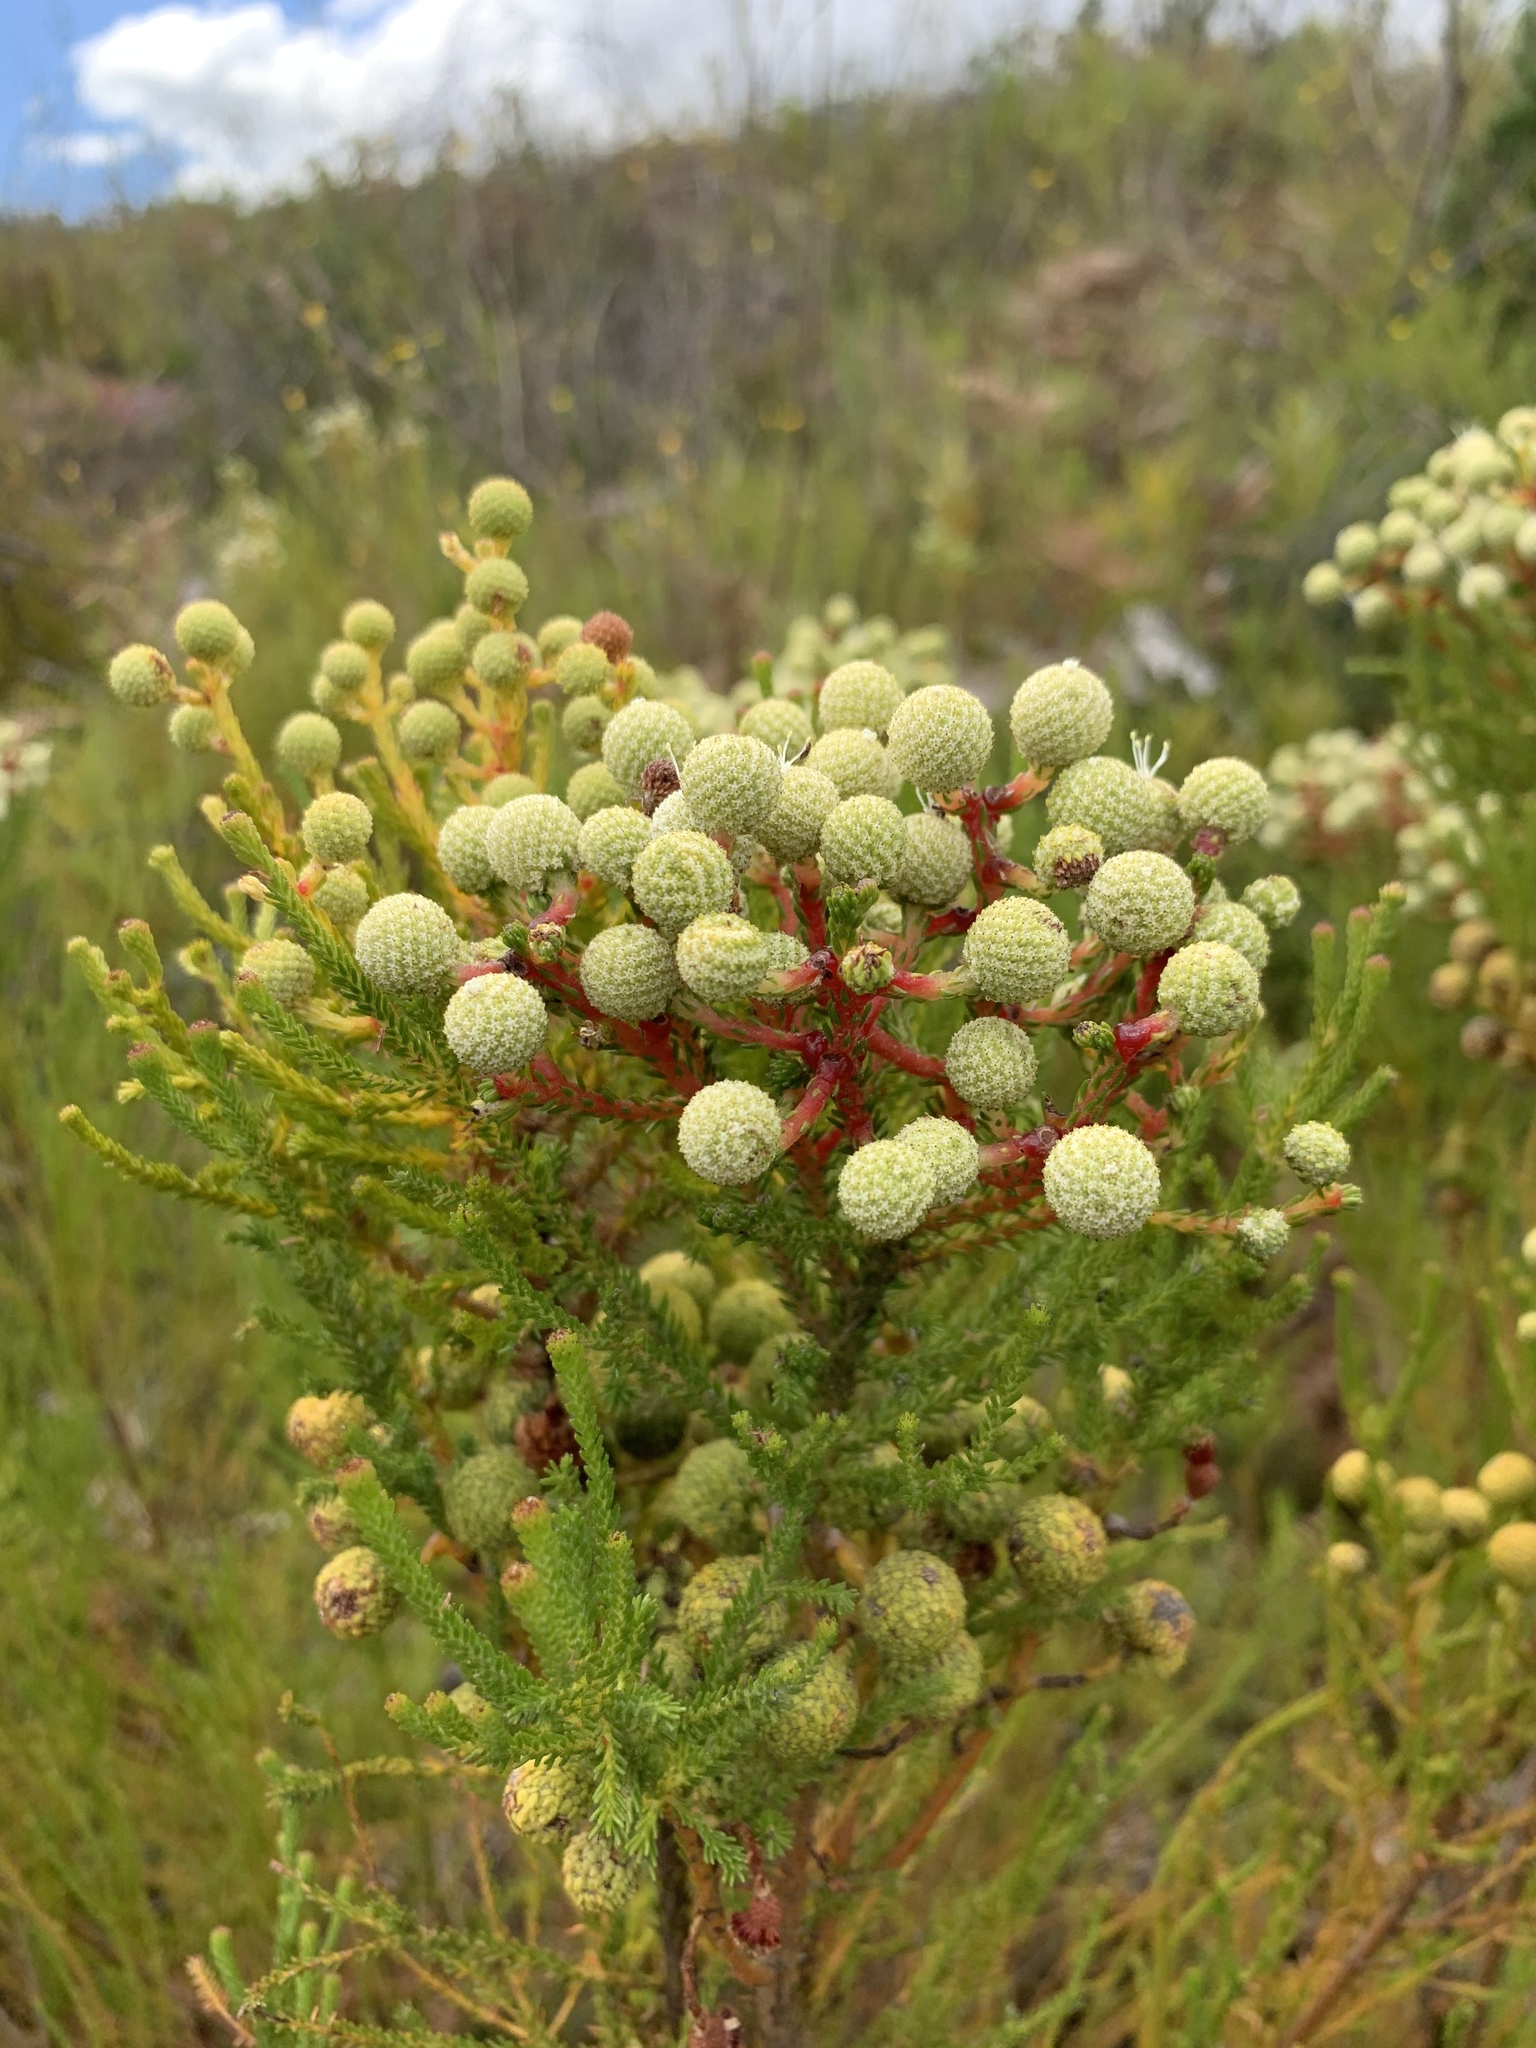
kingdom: Plantae
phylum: Tracheophyta
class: Magnoliopsida
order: Bruniales
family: Bruniaceae
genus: Berzelia
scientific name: Berzelia abrotanoides
